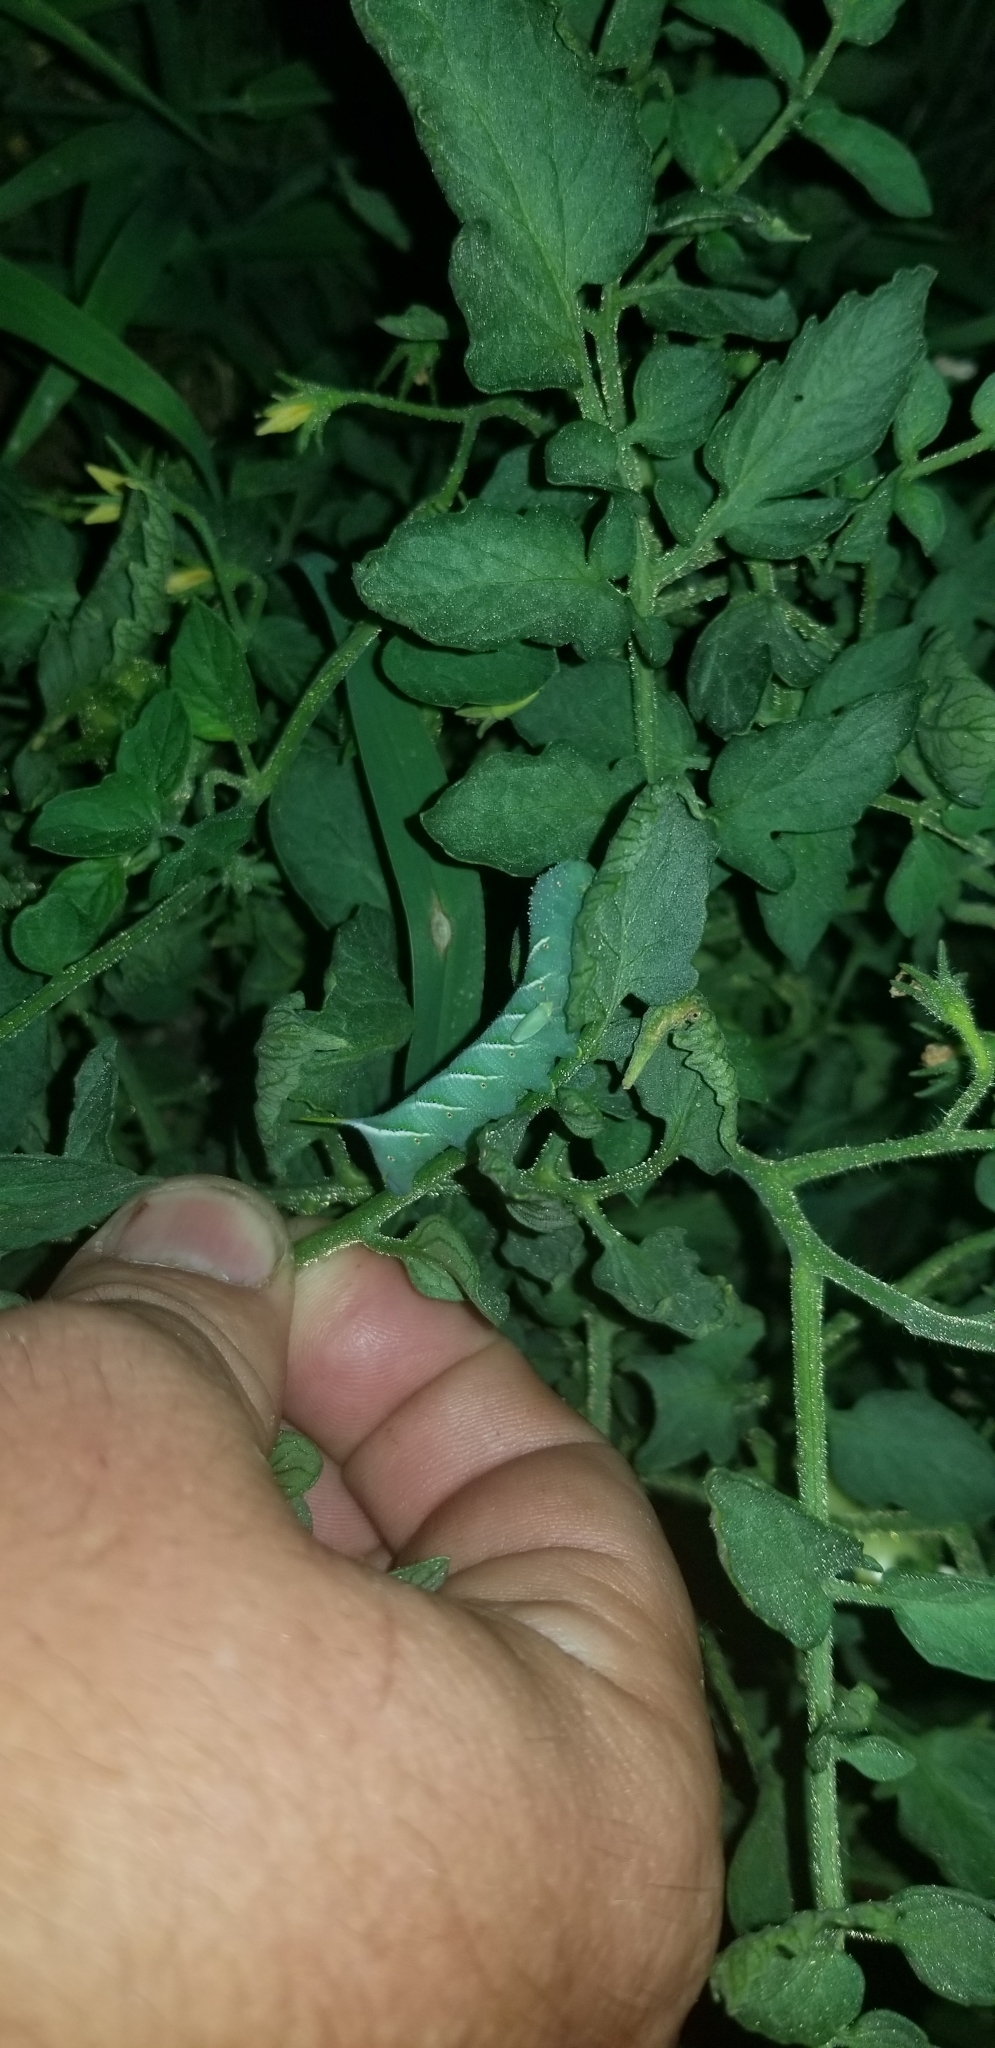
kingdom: Animalia
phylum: Arthropoda
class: Insecta
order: Lepidoptera
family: Sphingidae
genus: Manduca
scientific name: Manduca sexta
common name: Carolina sphinx
